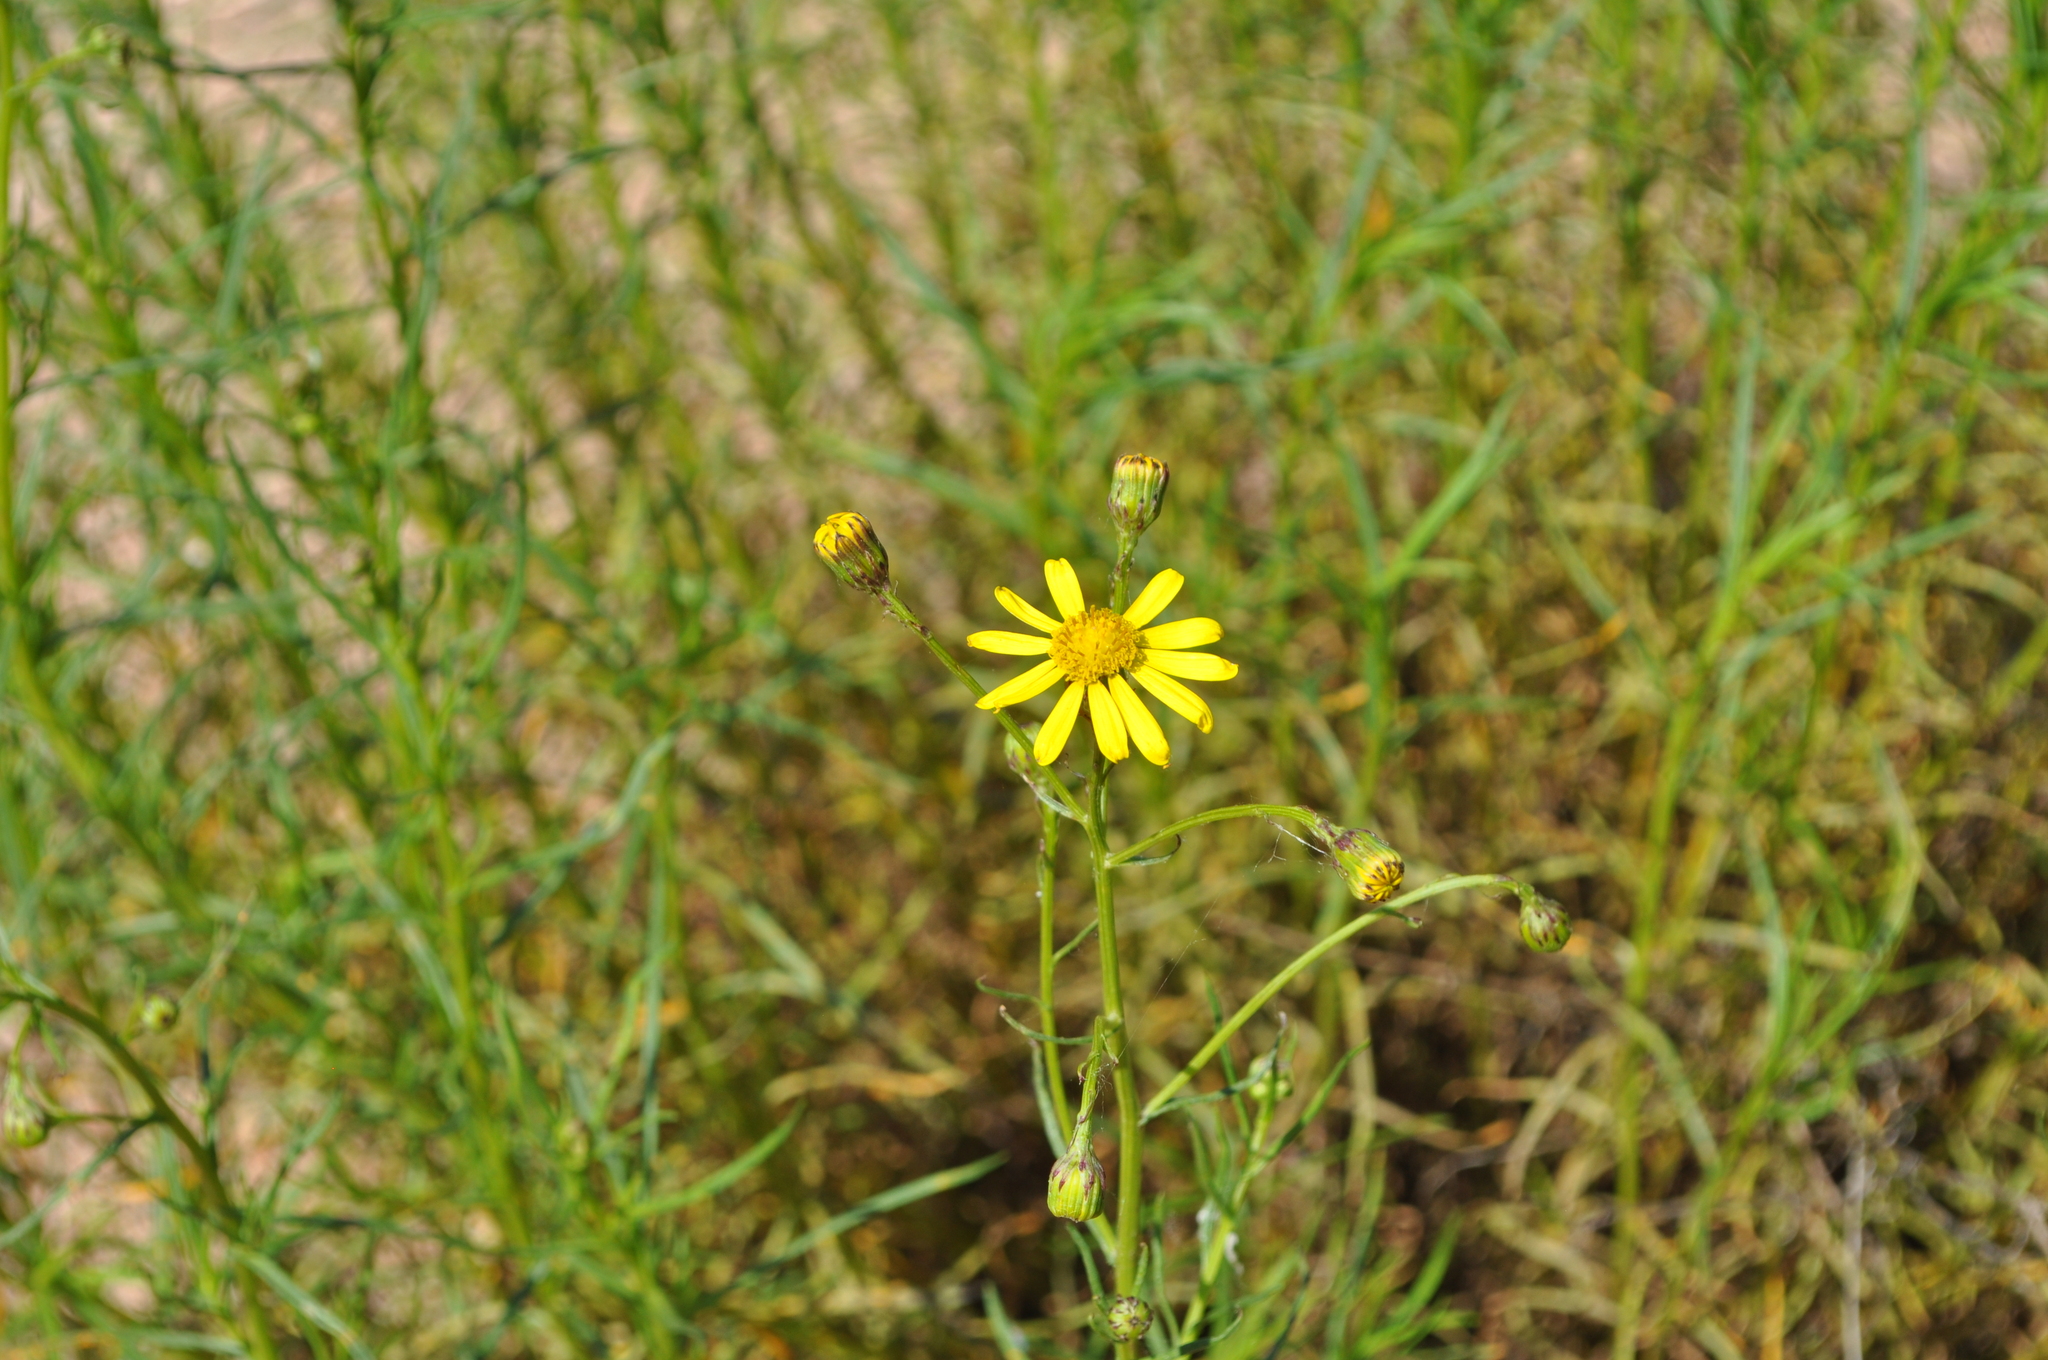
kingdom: Plantae
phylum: Tracheophyta
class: Magnoliopsida
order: Asterales
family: Asteraceae
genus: Senecio
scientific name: Senecio inaequidens
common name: Narrow-leaved ragwort
